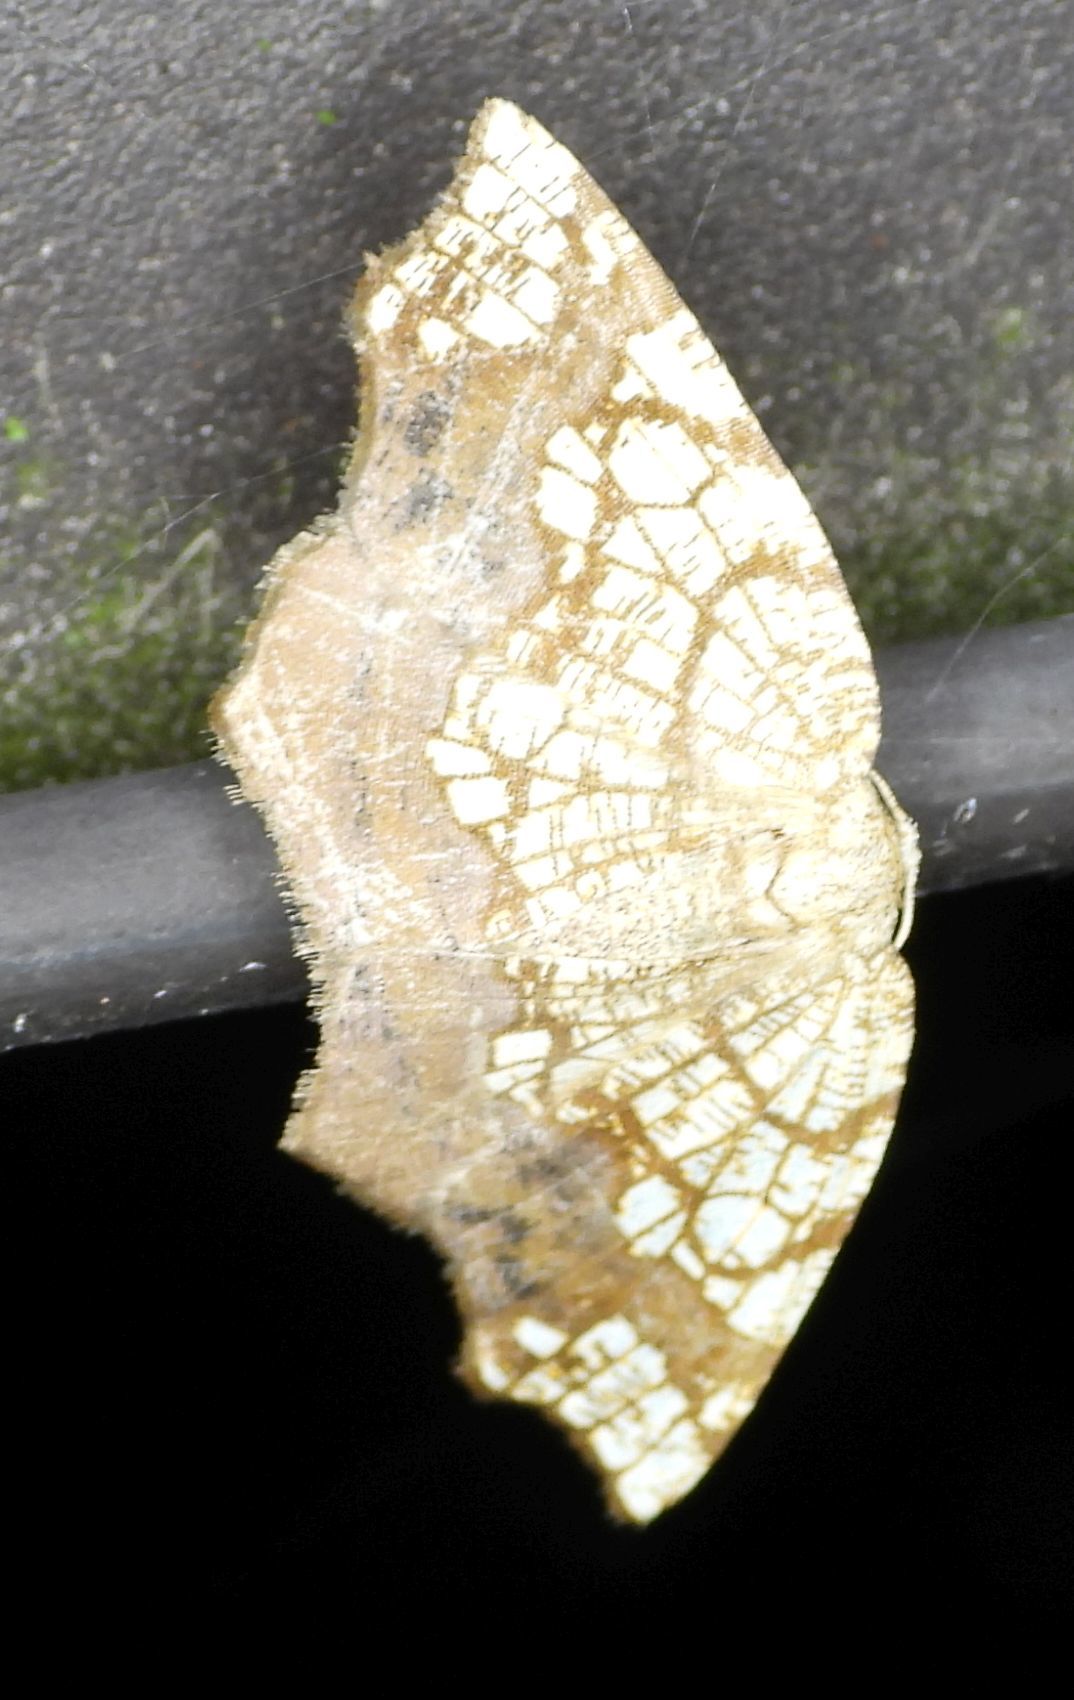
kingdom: Animalia
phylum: Arthropoda
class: Insecta
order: Lepidoptera
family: Geometridae
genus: Nematocampa
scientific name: Nematocampa resistaria
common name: Horned spanworm moth
